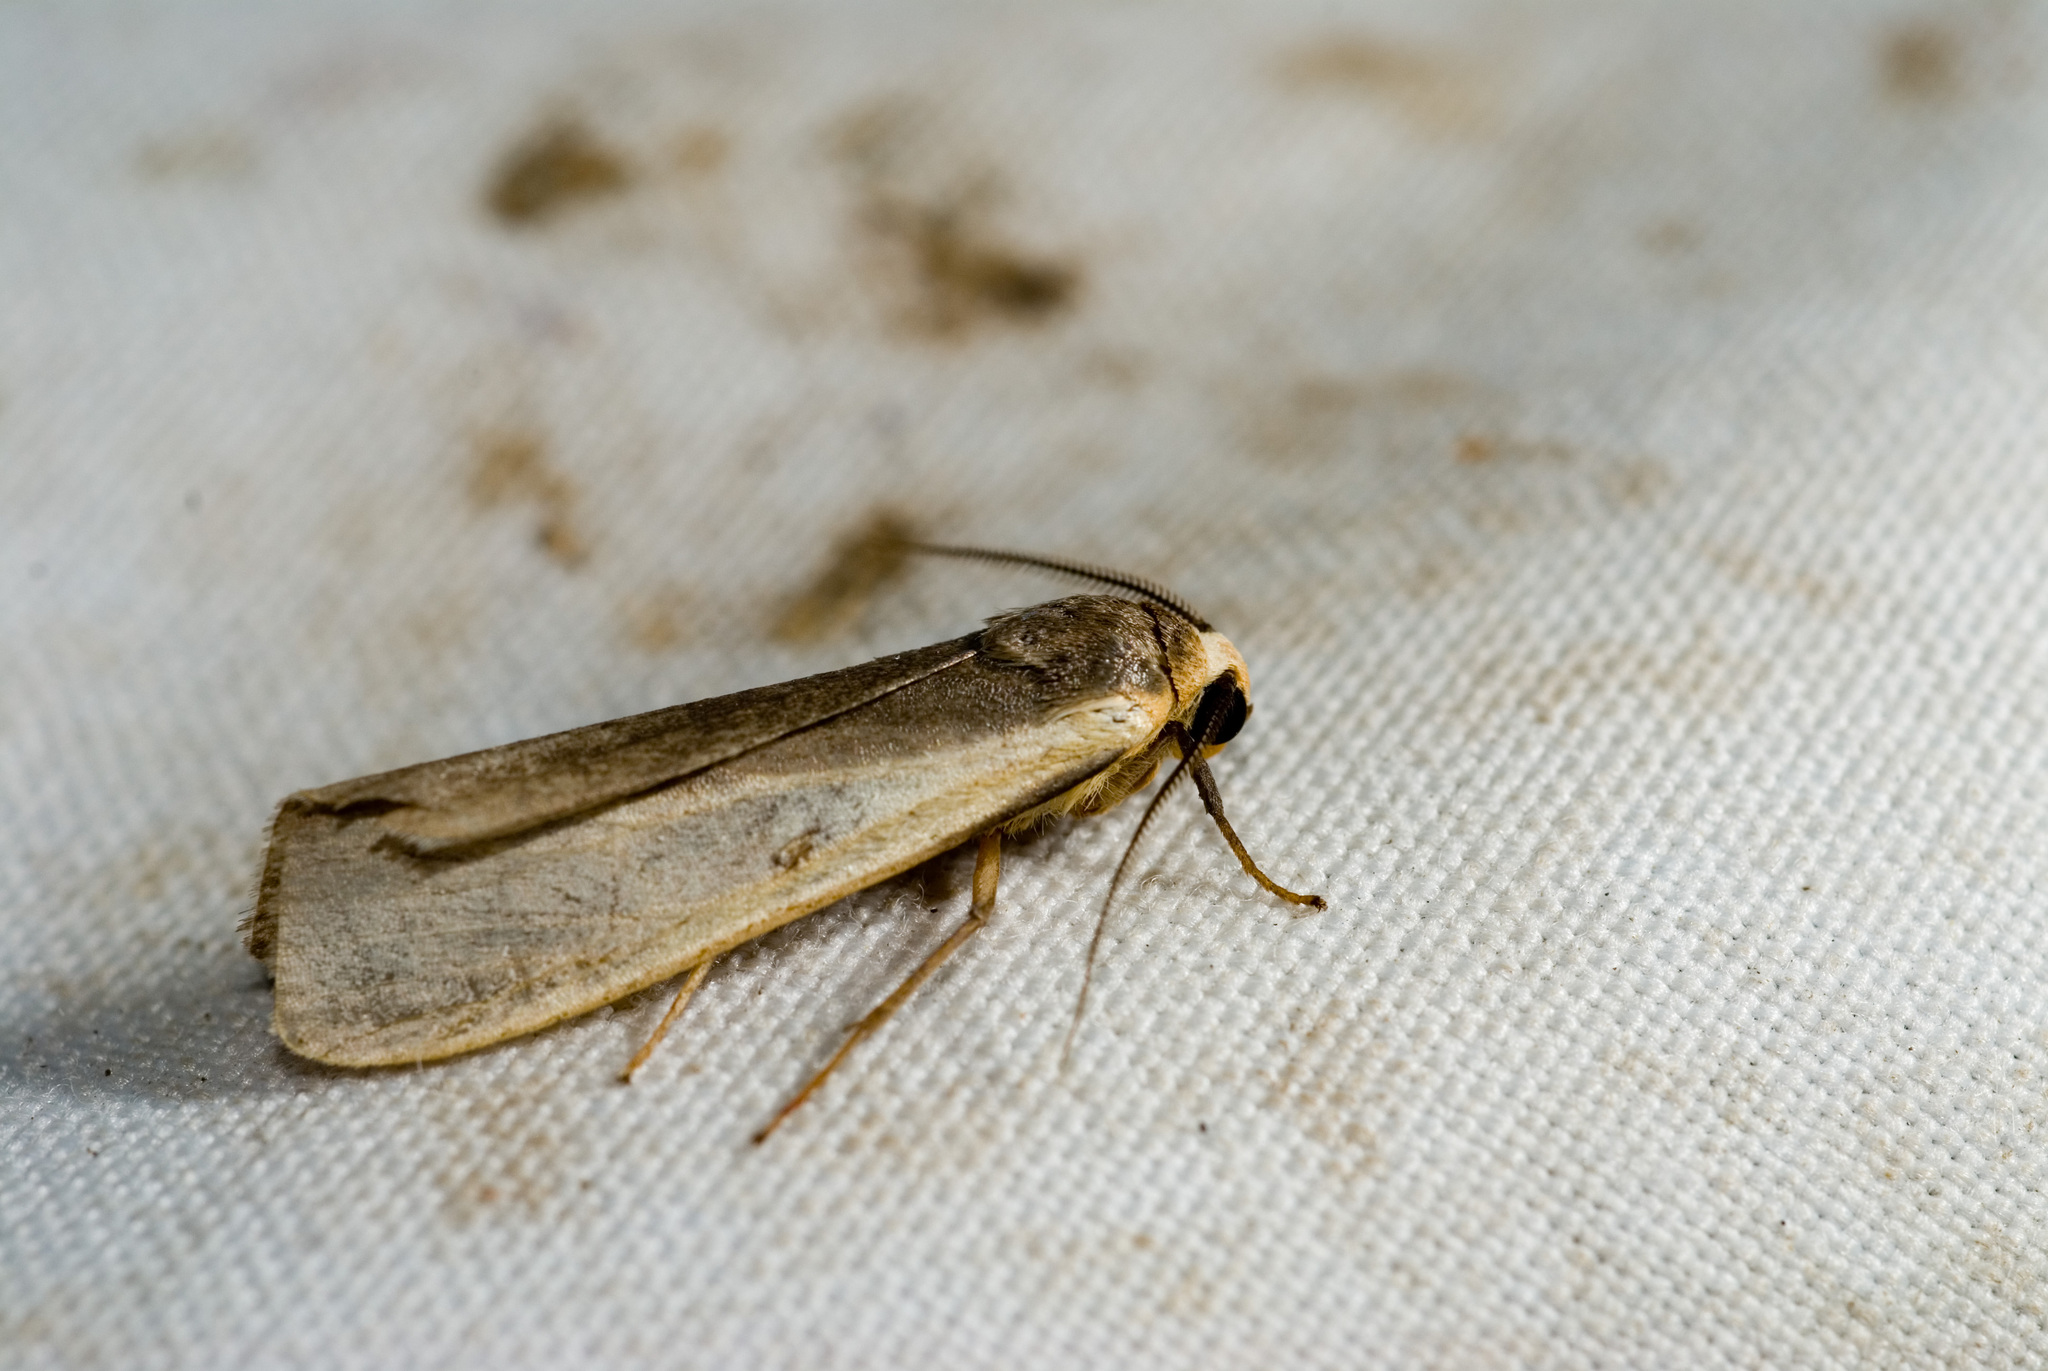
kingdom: Animalia
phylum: Arthropoda
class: Insecta
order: Lepidoptera
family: Erebidae
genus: Hesudra
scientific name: Hesudra divisa
